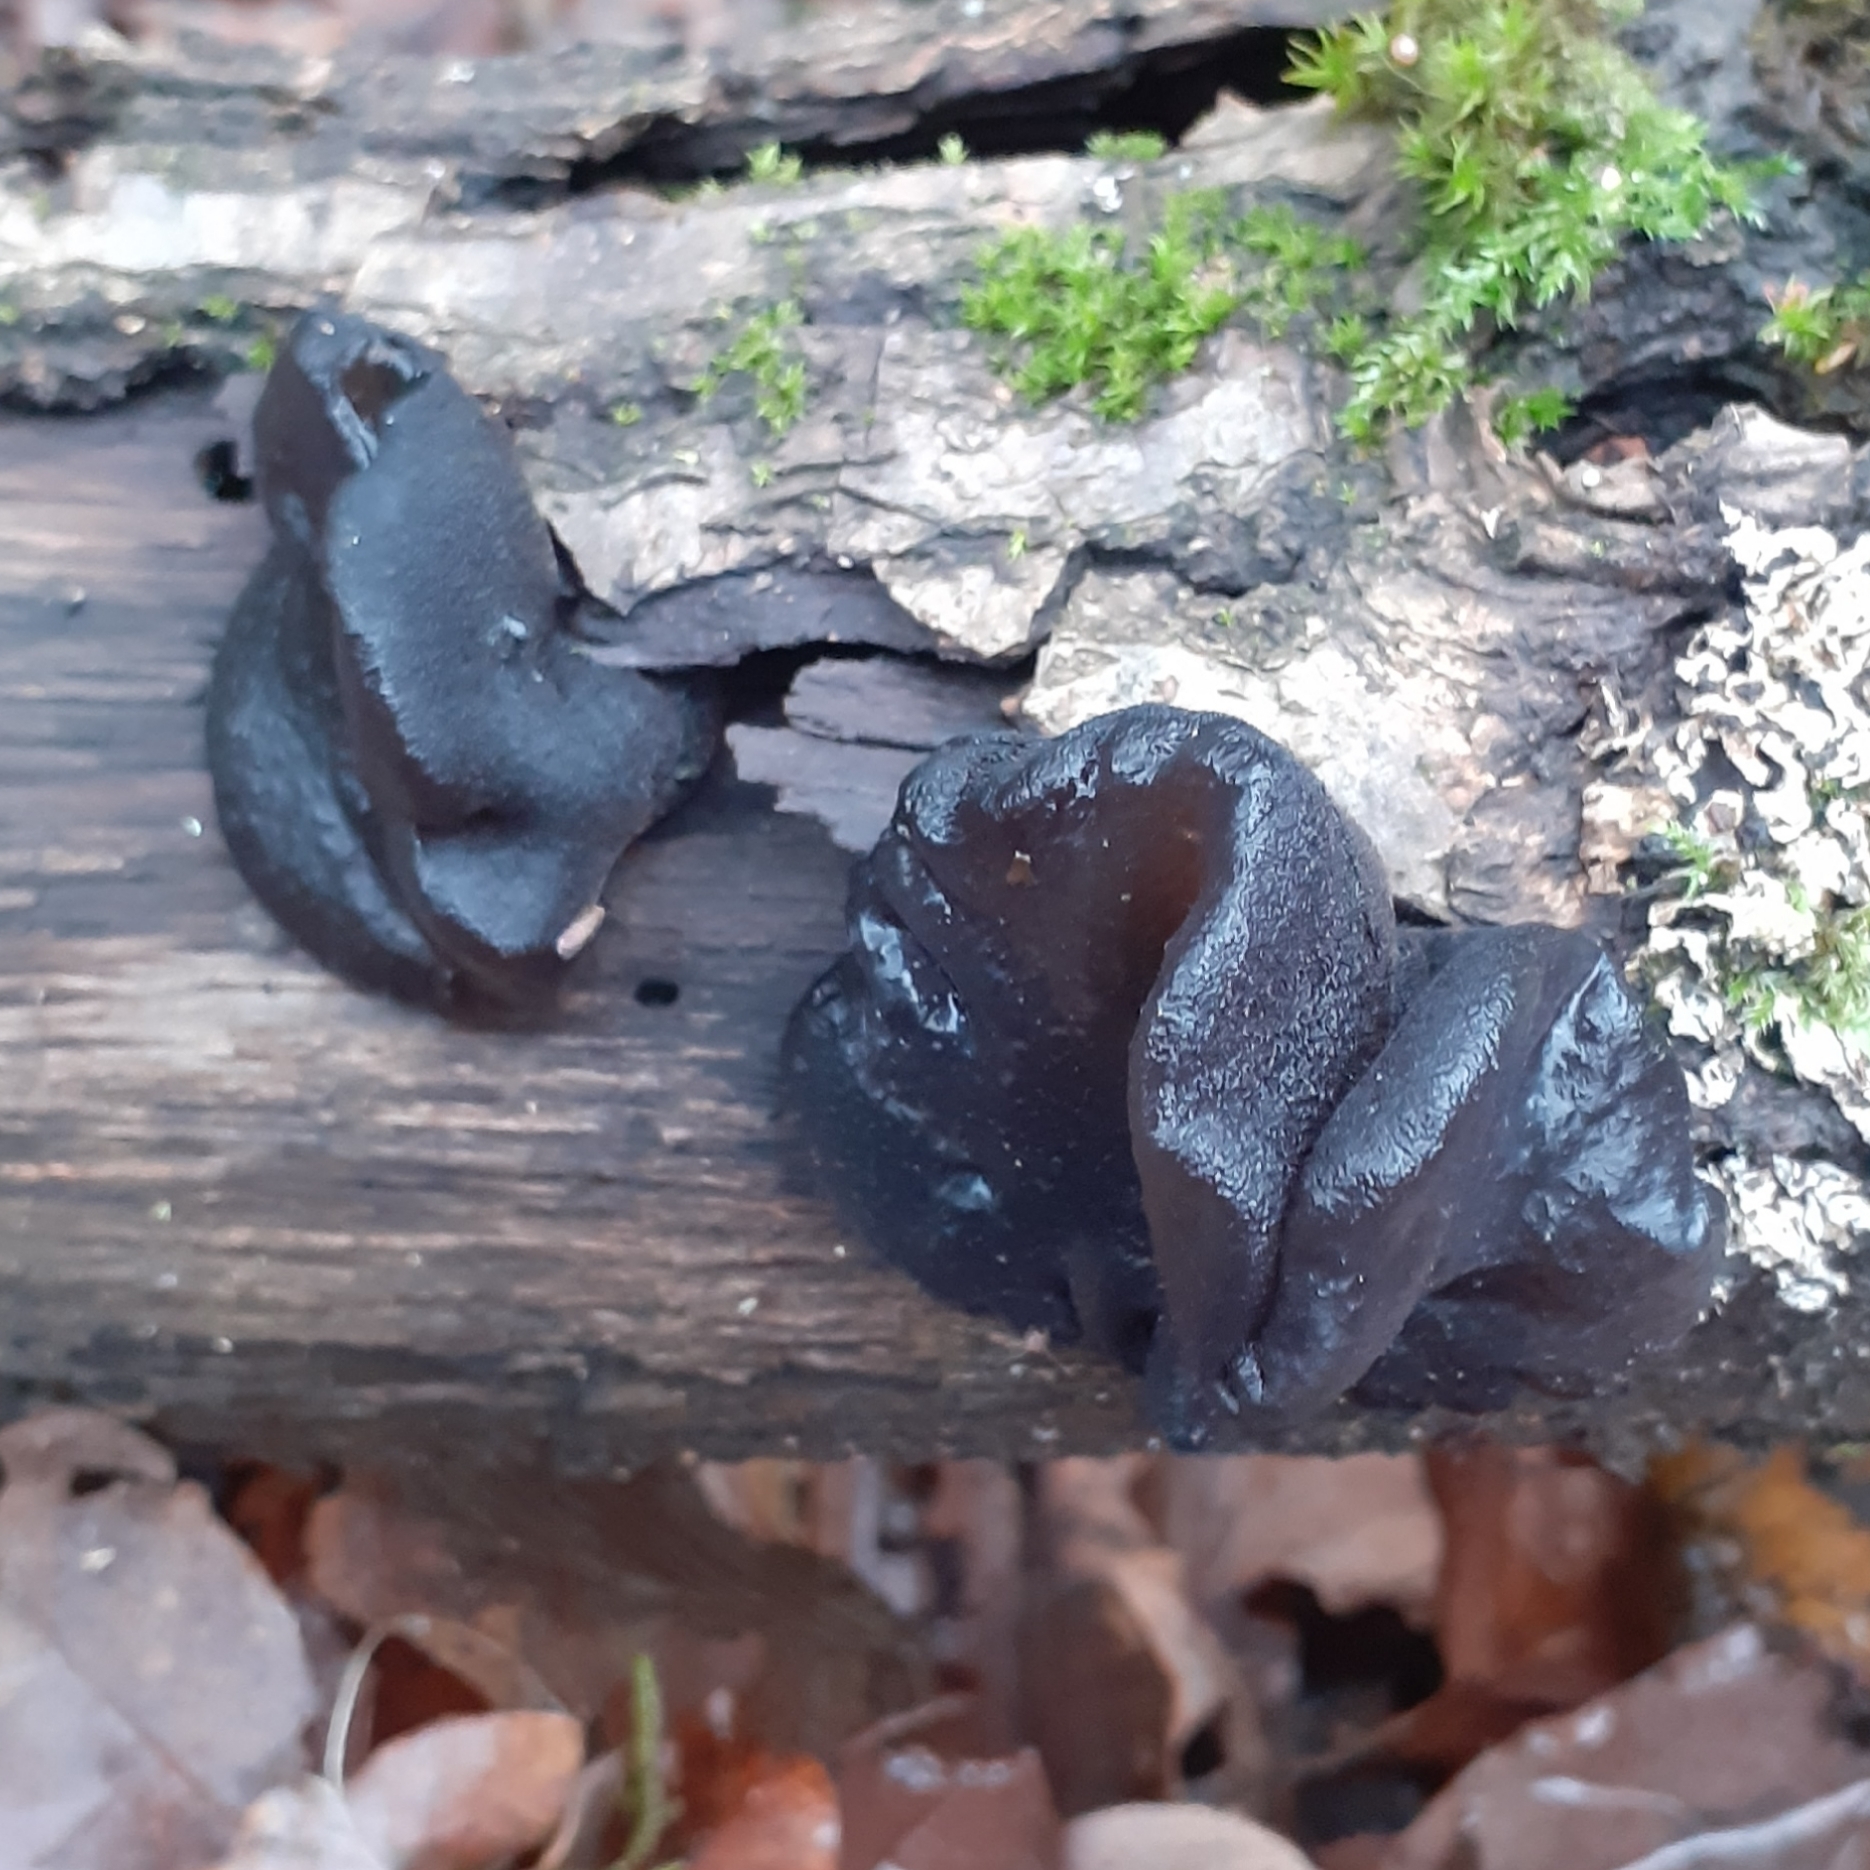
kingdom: Fungi
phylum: Basidiomycota
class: Agaricomycetes
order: Auriculariales
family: Auriculariaceae
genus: Exidia
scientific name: Exidia glandulosa
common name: Witches' butter
